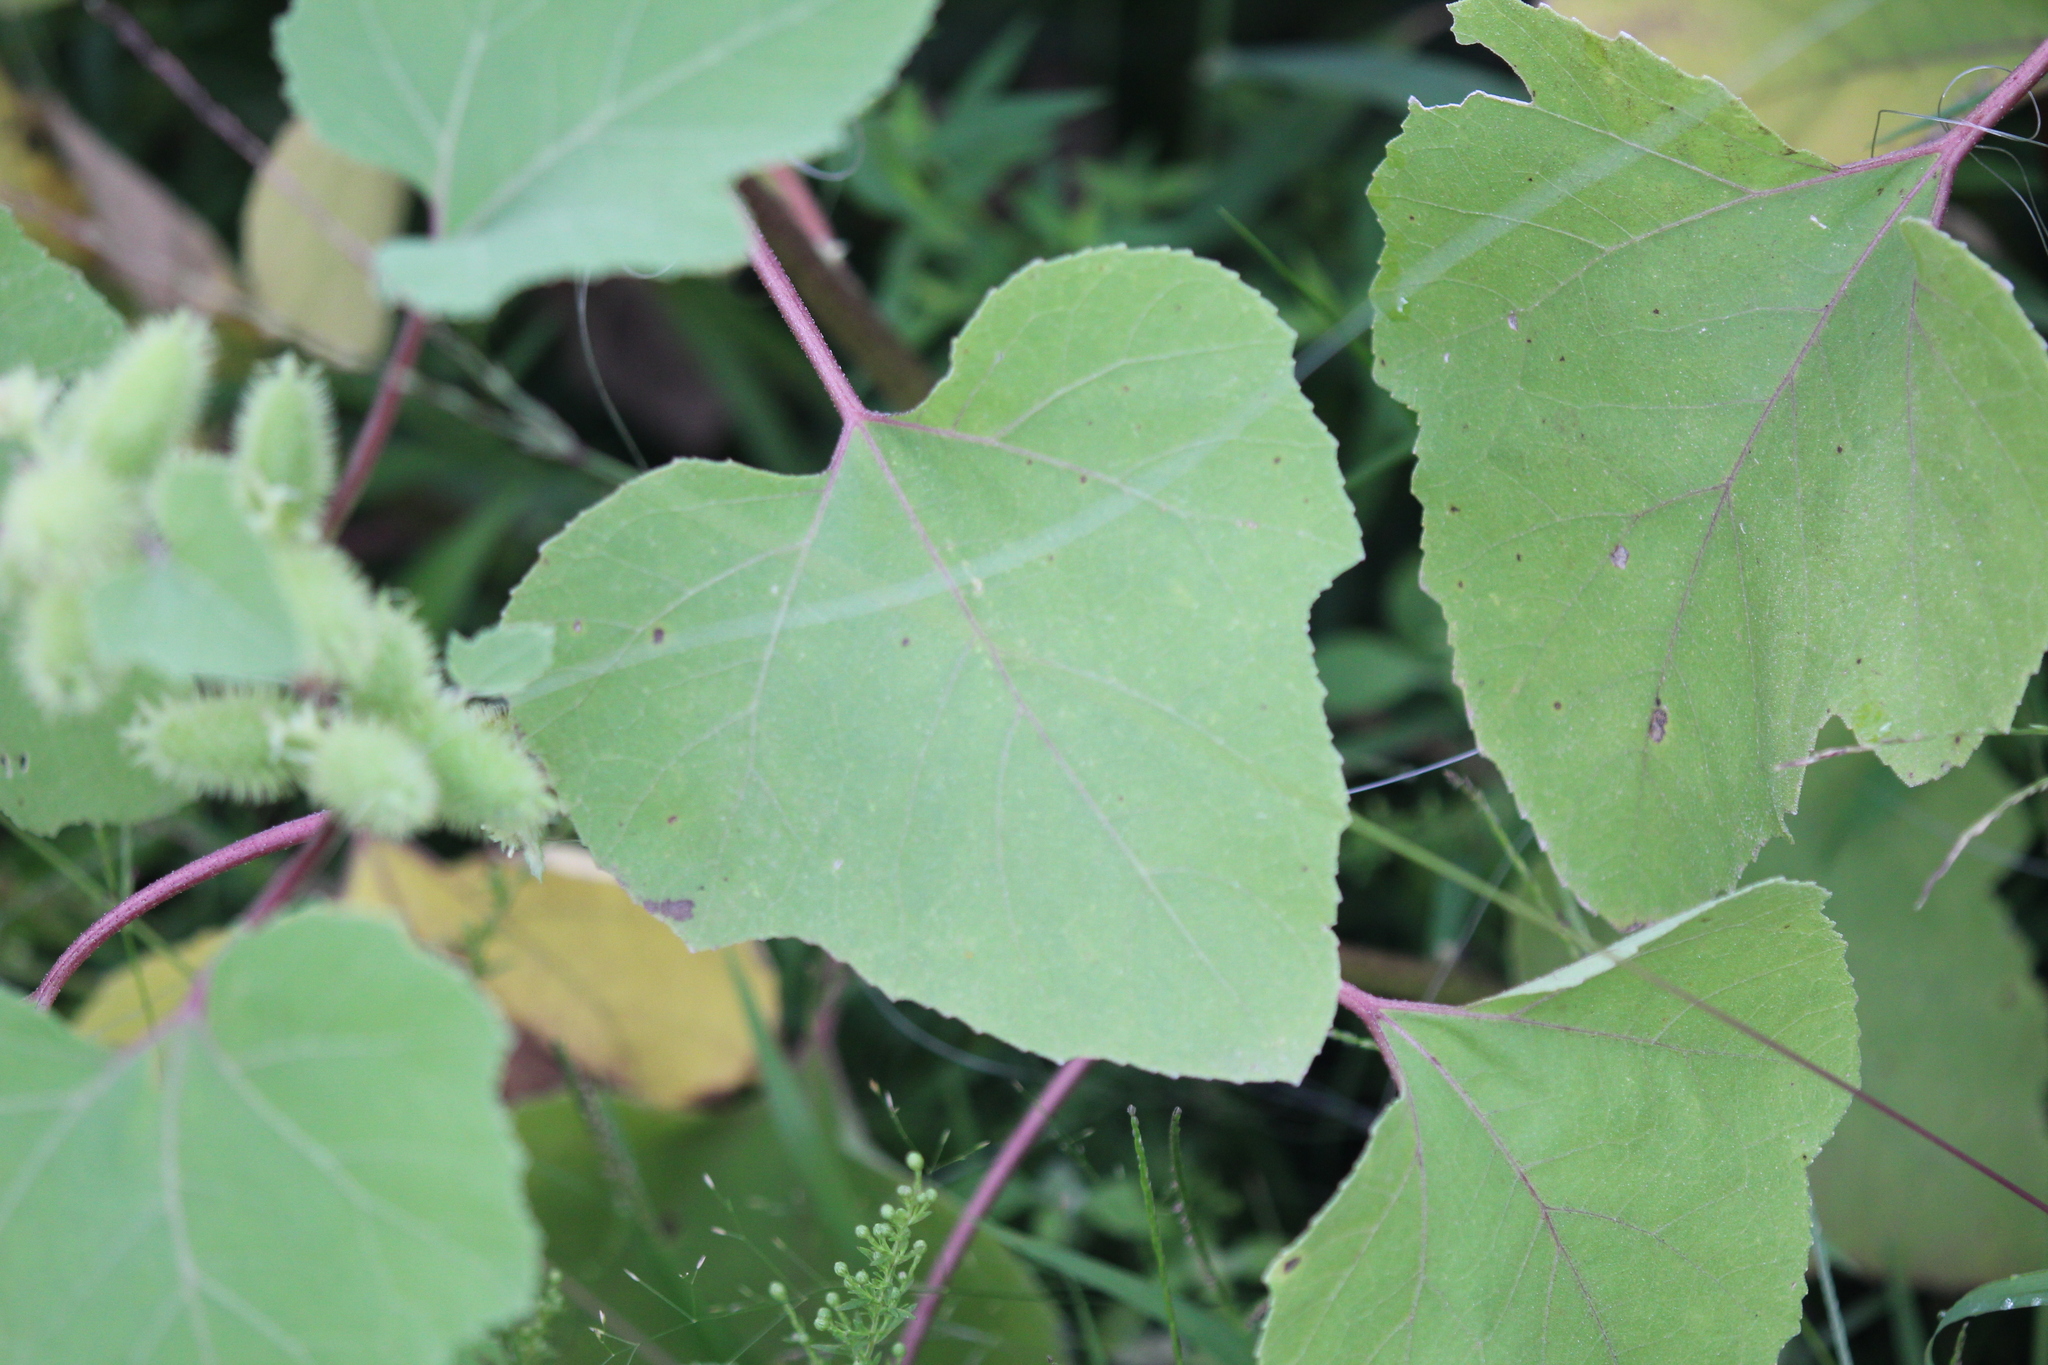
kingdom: Plantae
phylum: Tracheophyta
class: Magnoliopsida
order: Asterales
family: Asteraceae
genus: Xanthium
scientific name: Xanthium strumarium
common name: Rough cocklebur
